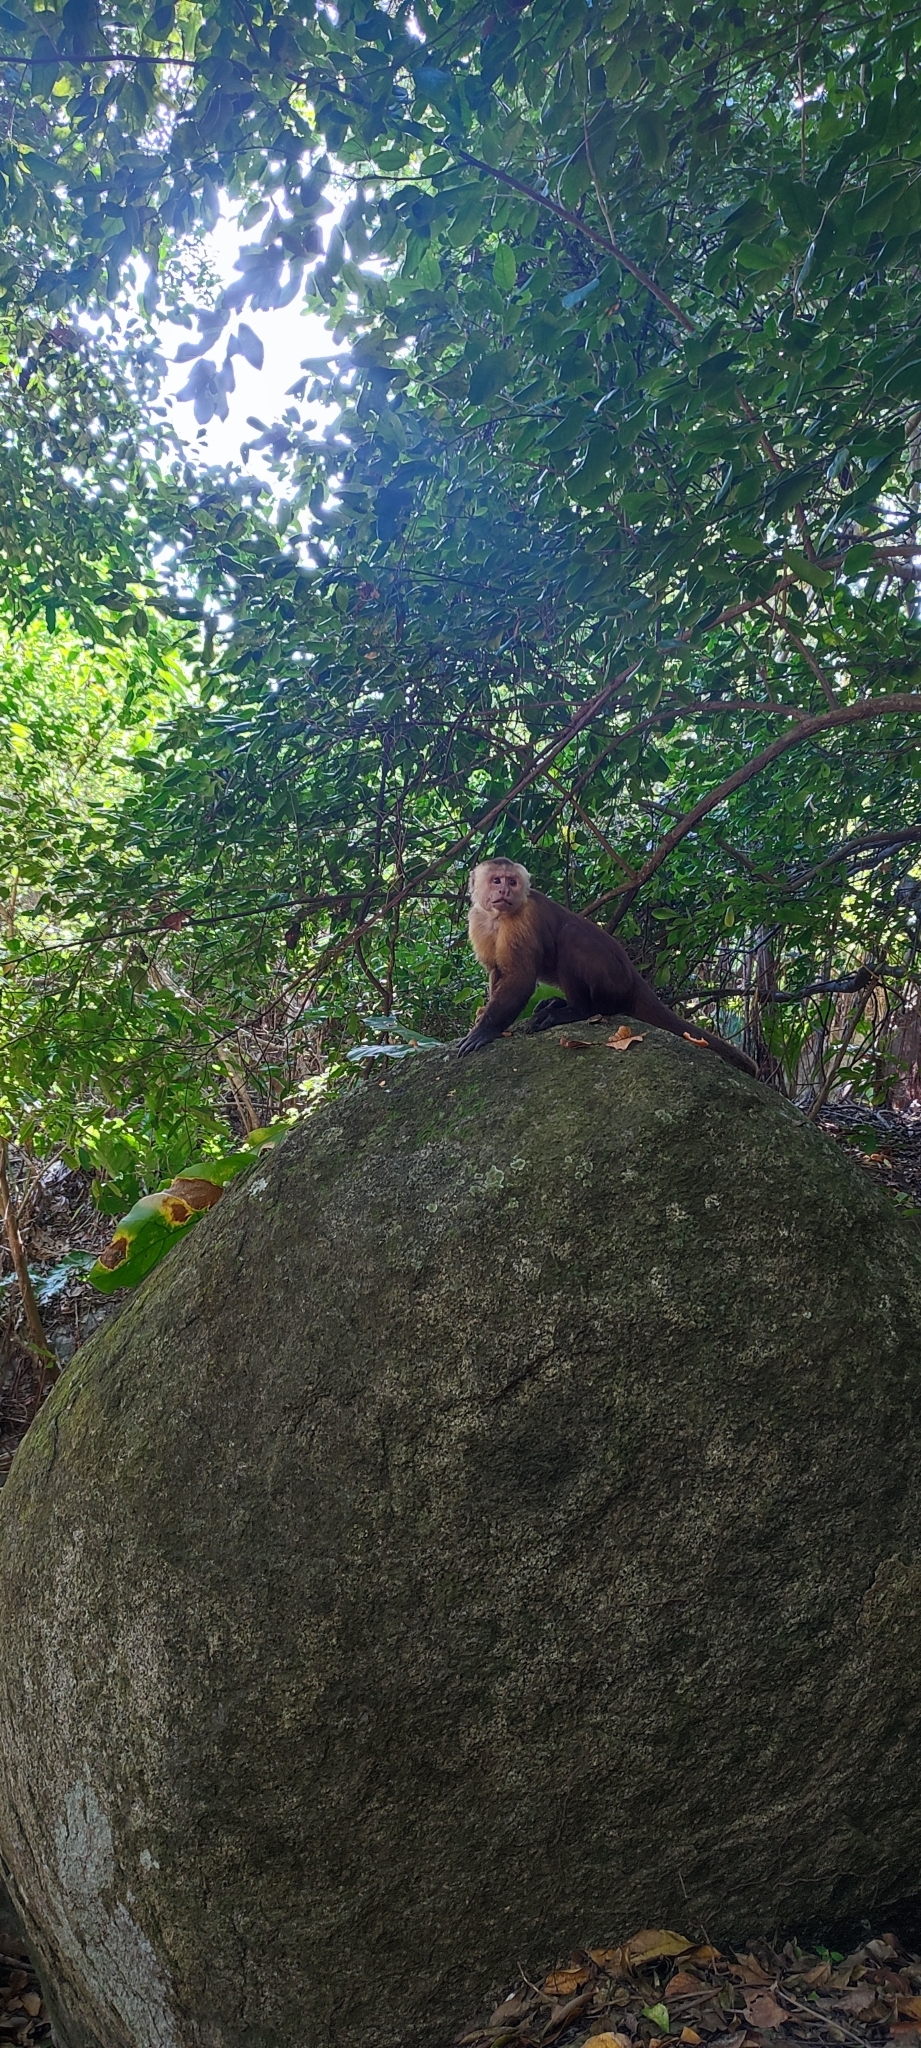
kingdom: Animalia
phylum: Chordata
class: Mammalia
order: Primates
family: Cebidae
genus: Cebus
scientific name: Cebus malitiosus
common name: Santa marta white-fronted capuchin
